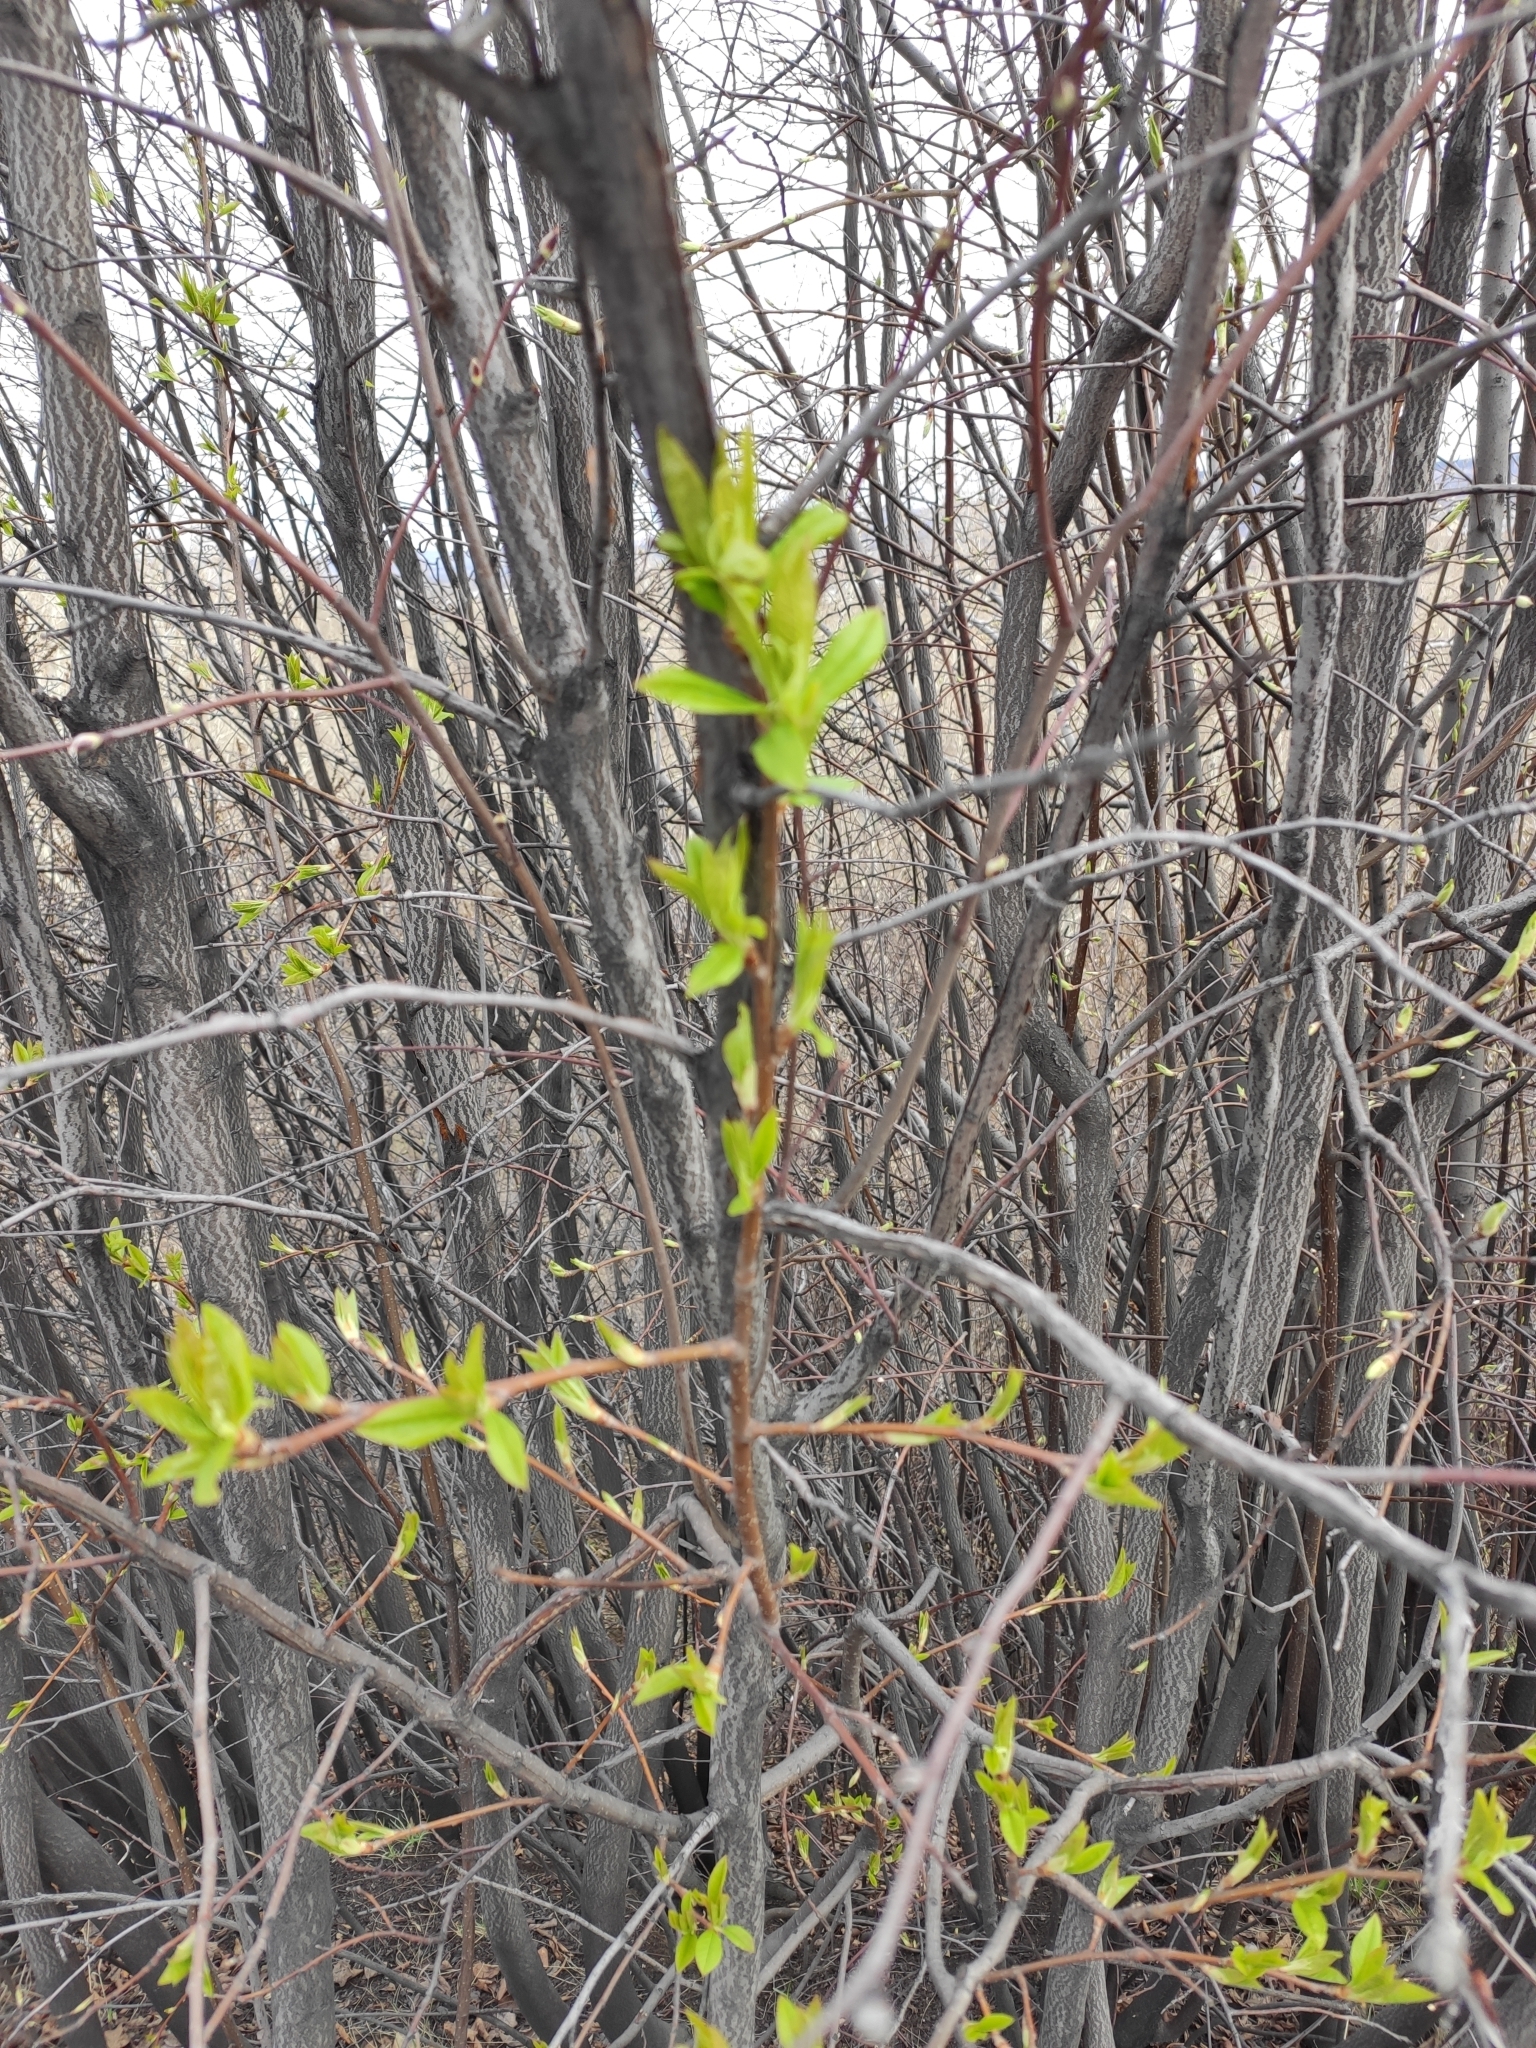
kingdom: Plantae
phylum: Tracheophyta
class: Magnoliopsida
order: Rosales
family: Rosaceae
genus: Prunus
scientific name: Prunus padus
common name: Bird cherry
